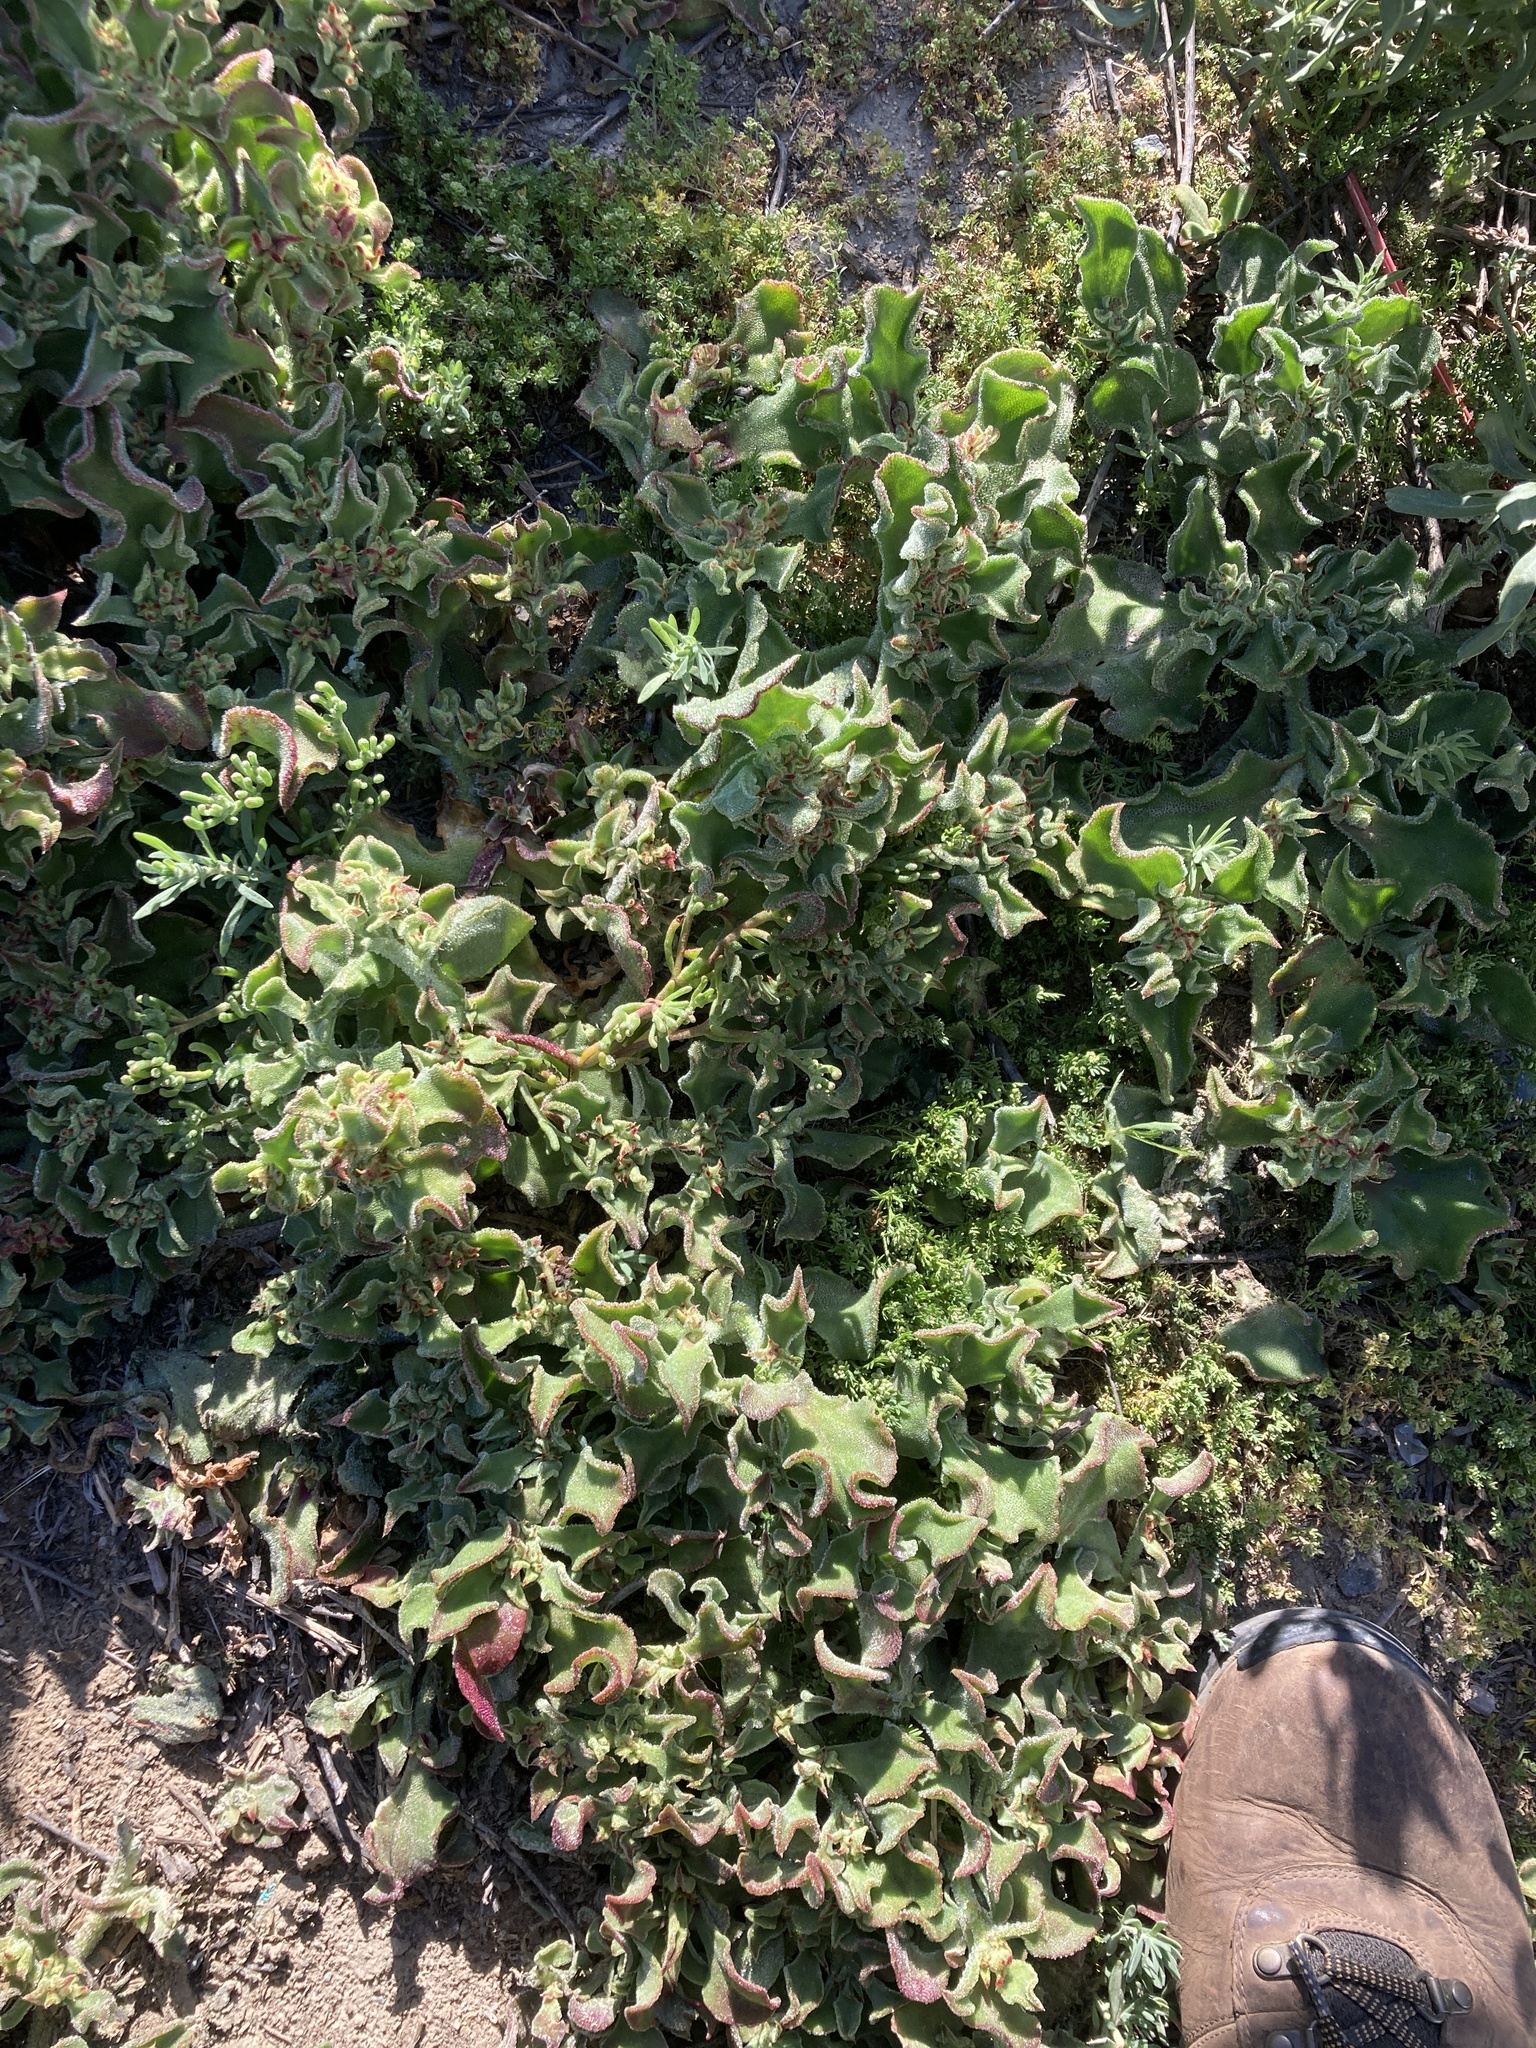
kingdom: Plantae
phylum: Tracheophyta
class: Magnoliopsida
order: Caryophyllales
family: Aizoaceae
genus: Mesembryanthemum
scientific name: Mesembryanthemum crystallinum
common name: Common iceplant
